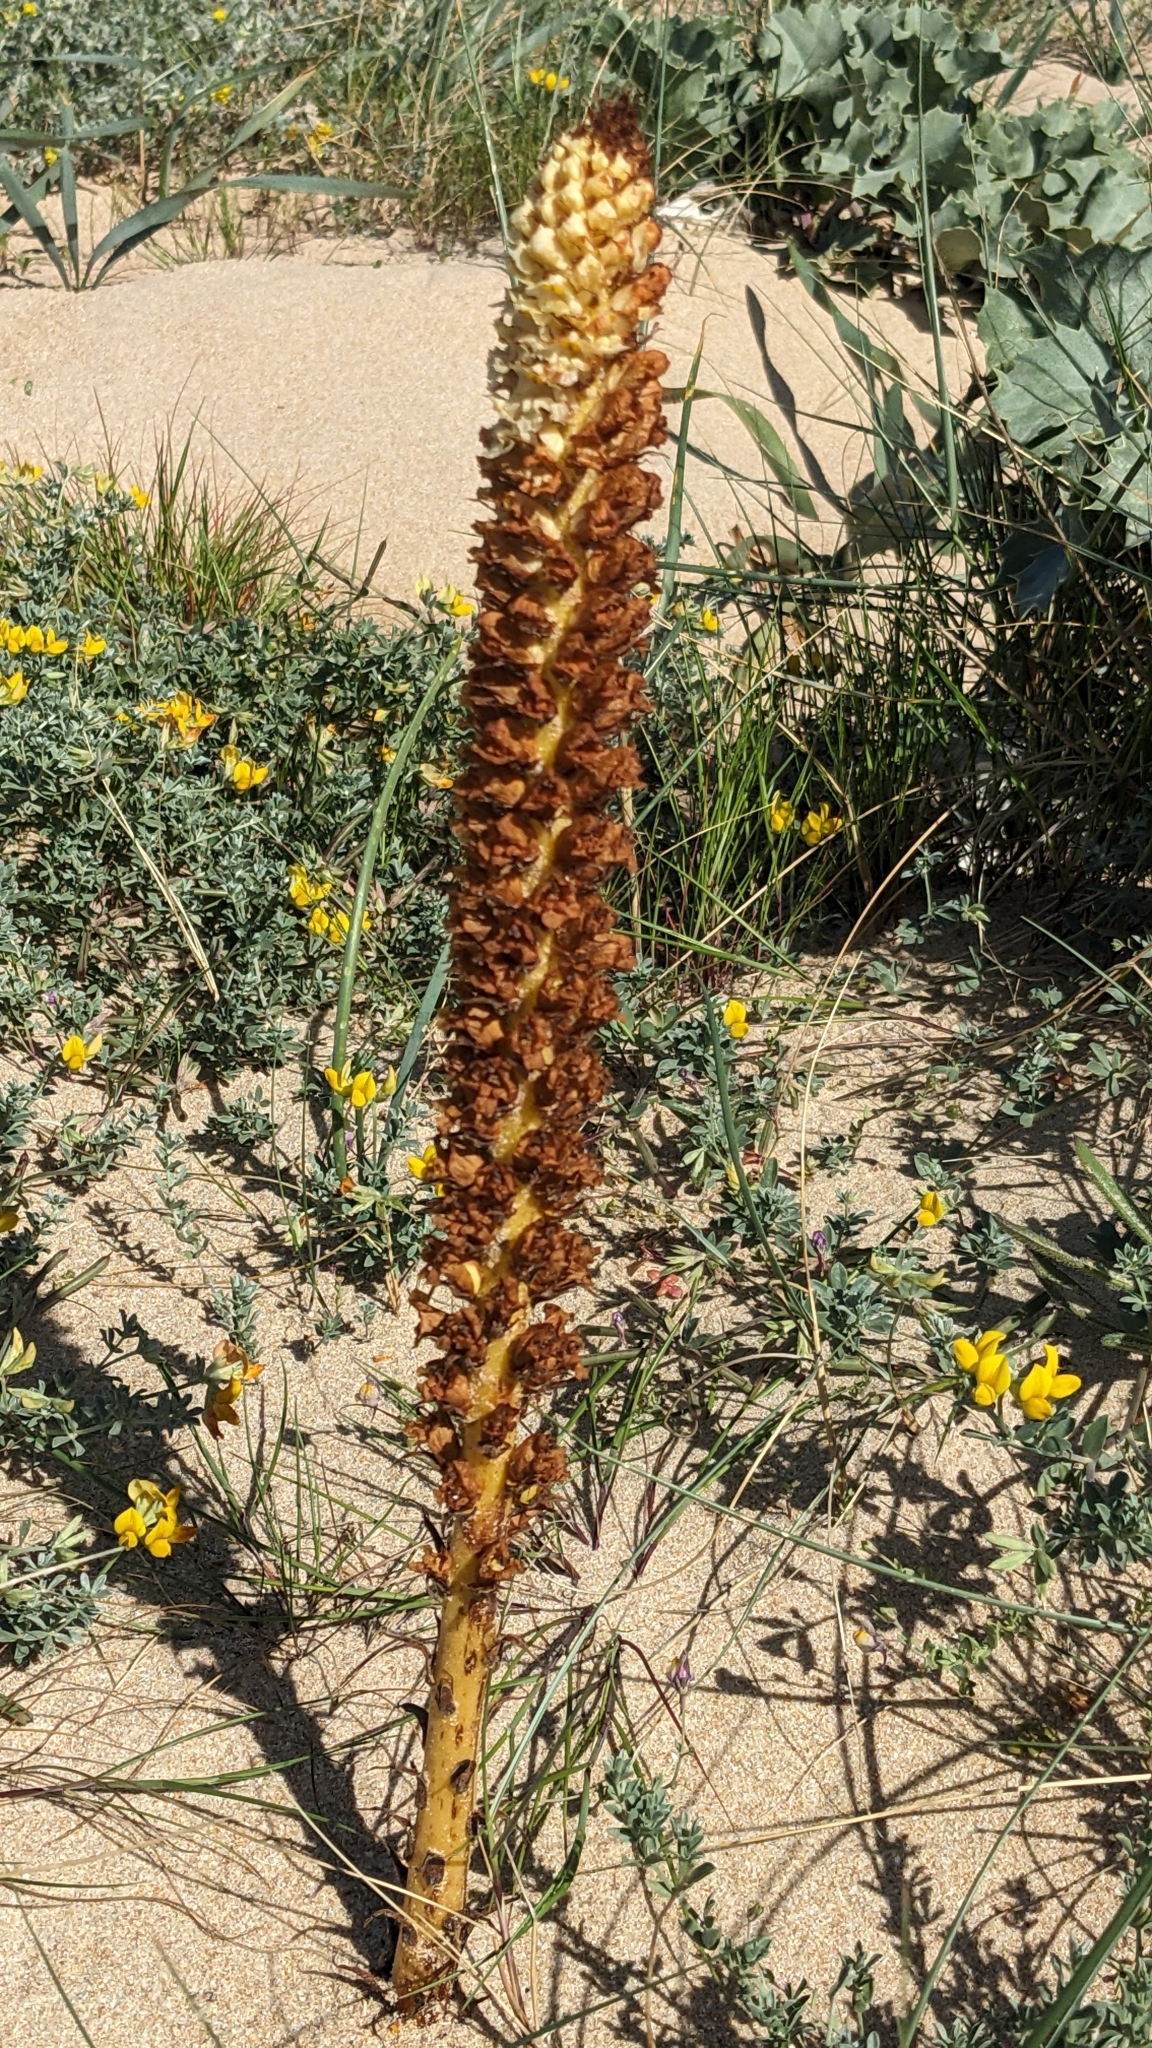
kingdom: Plantae
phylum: Tracheophyta
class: Magnoliopsida
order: Lamiales
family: Orobanchaceae
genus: Orobanche
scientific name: Orobanche densiflora
